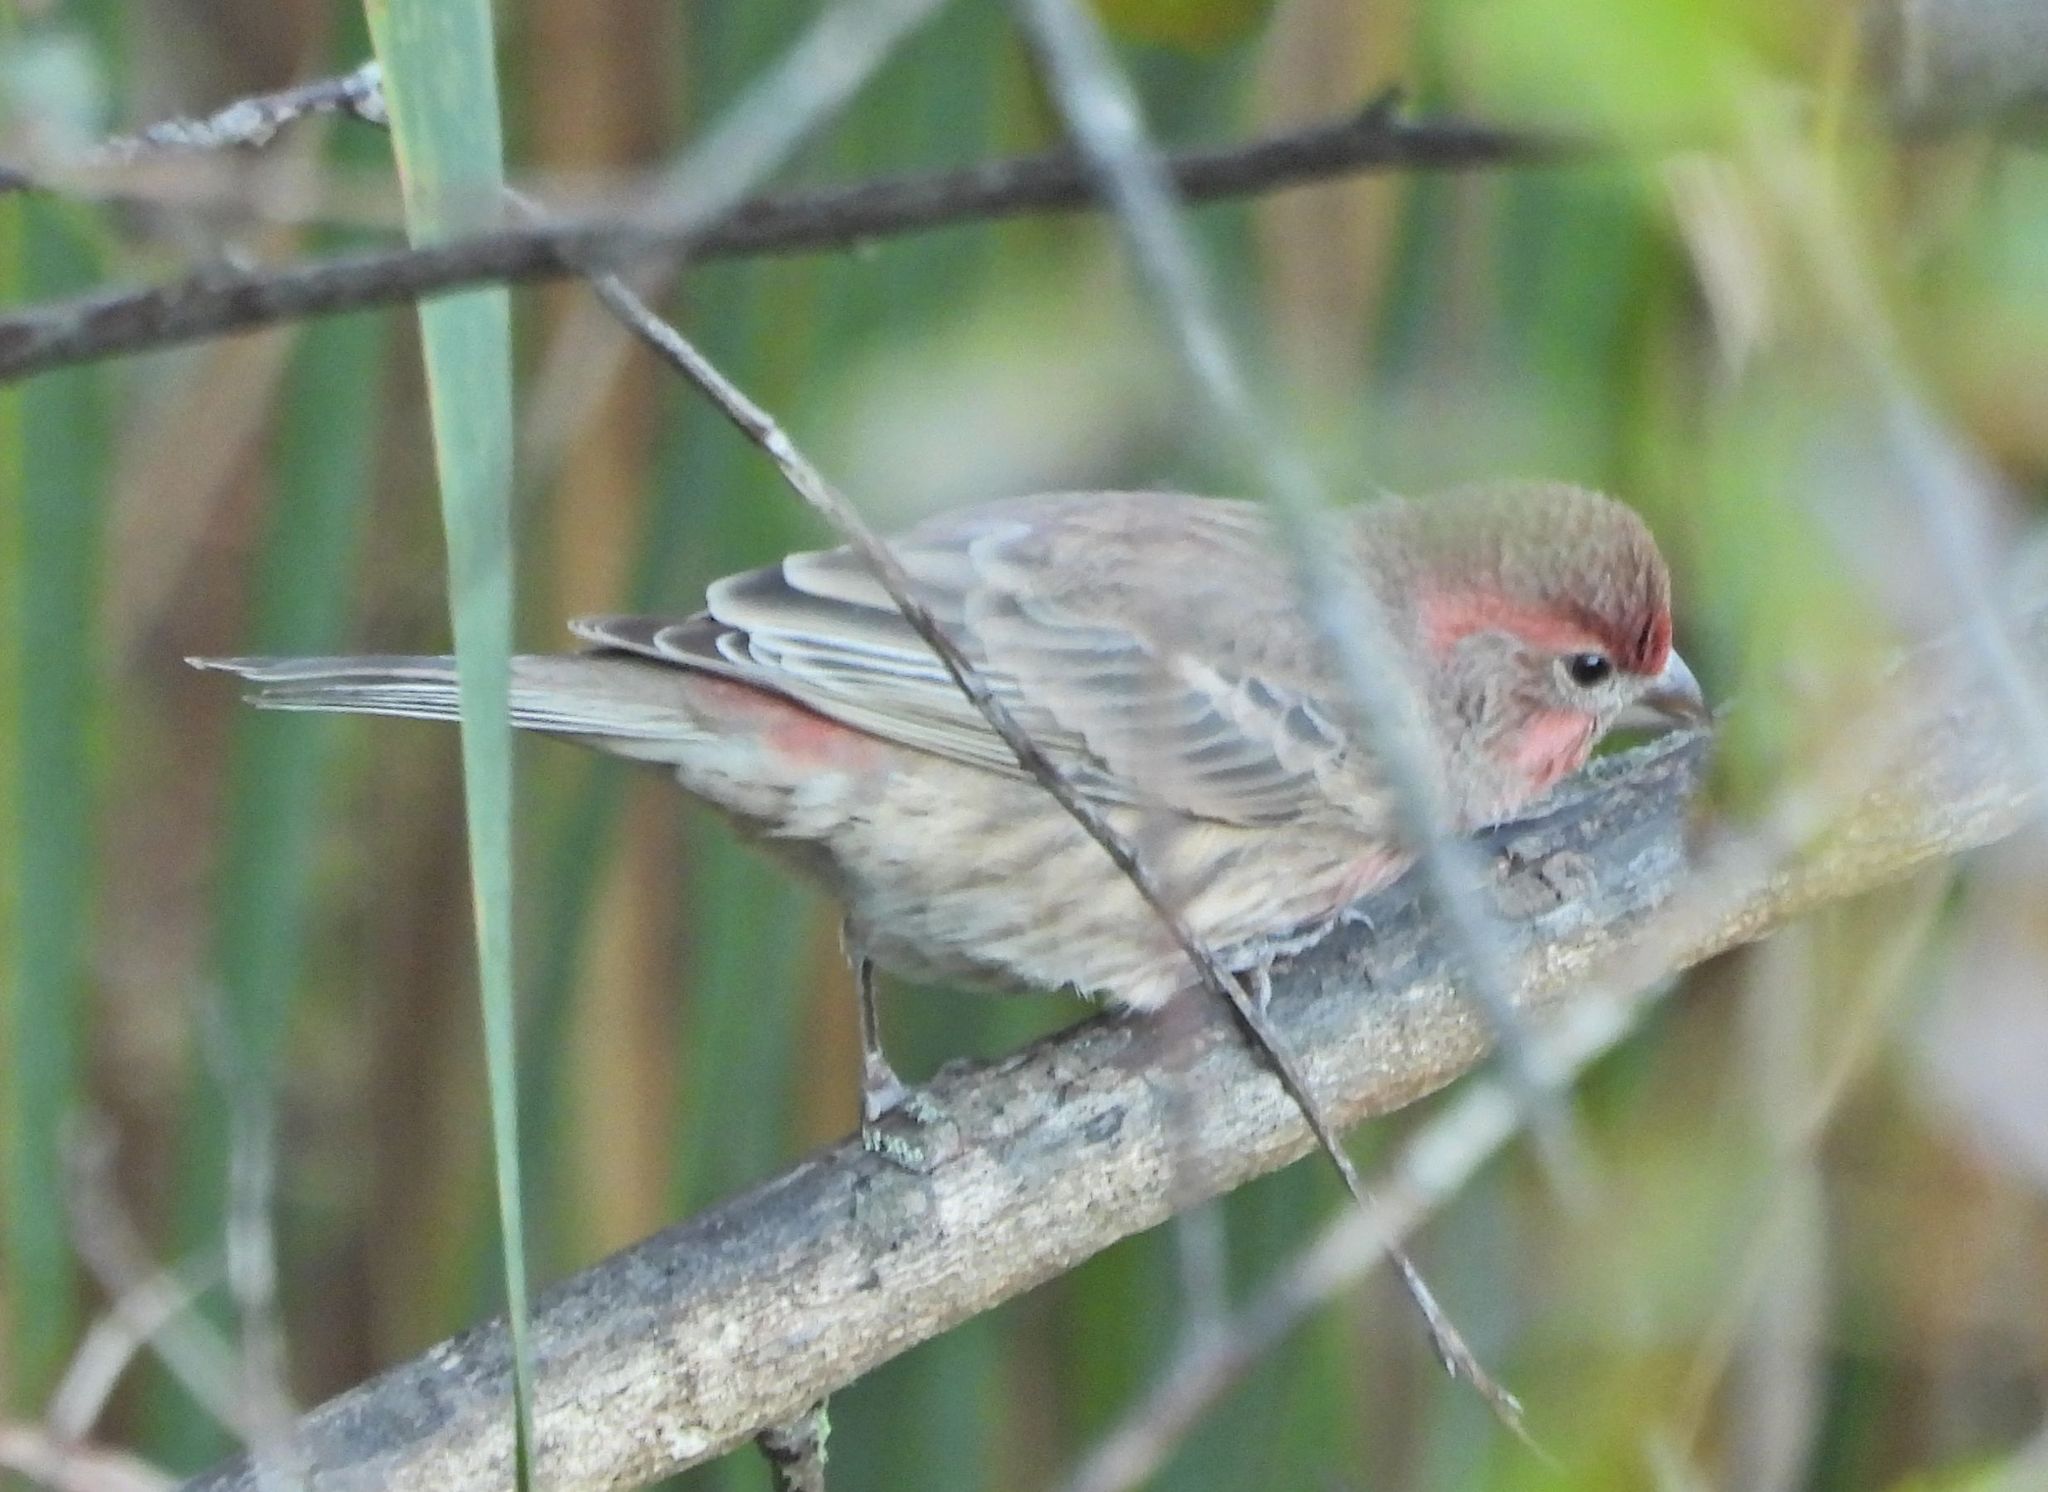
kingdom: Animalia
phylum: Chordata
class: Aves
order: Passeriformes
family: Fringillidae
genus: Haemorhous
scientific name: Haemorhous mexicanus
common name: House finch
